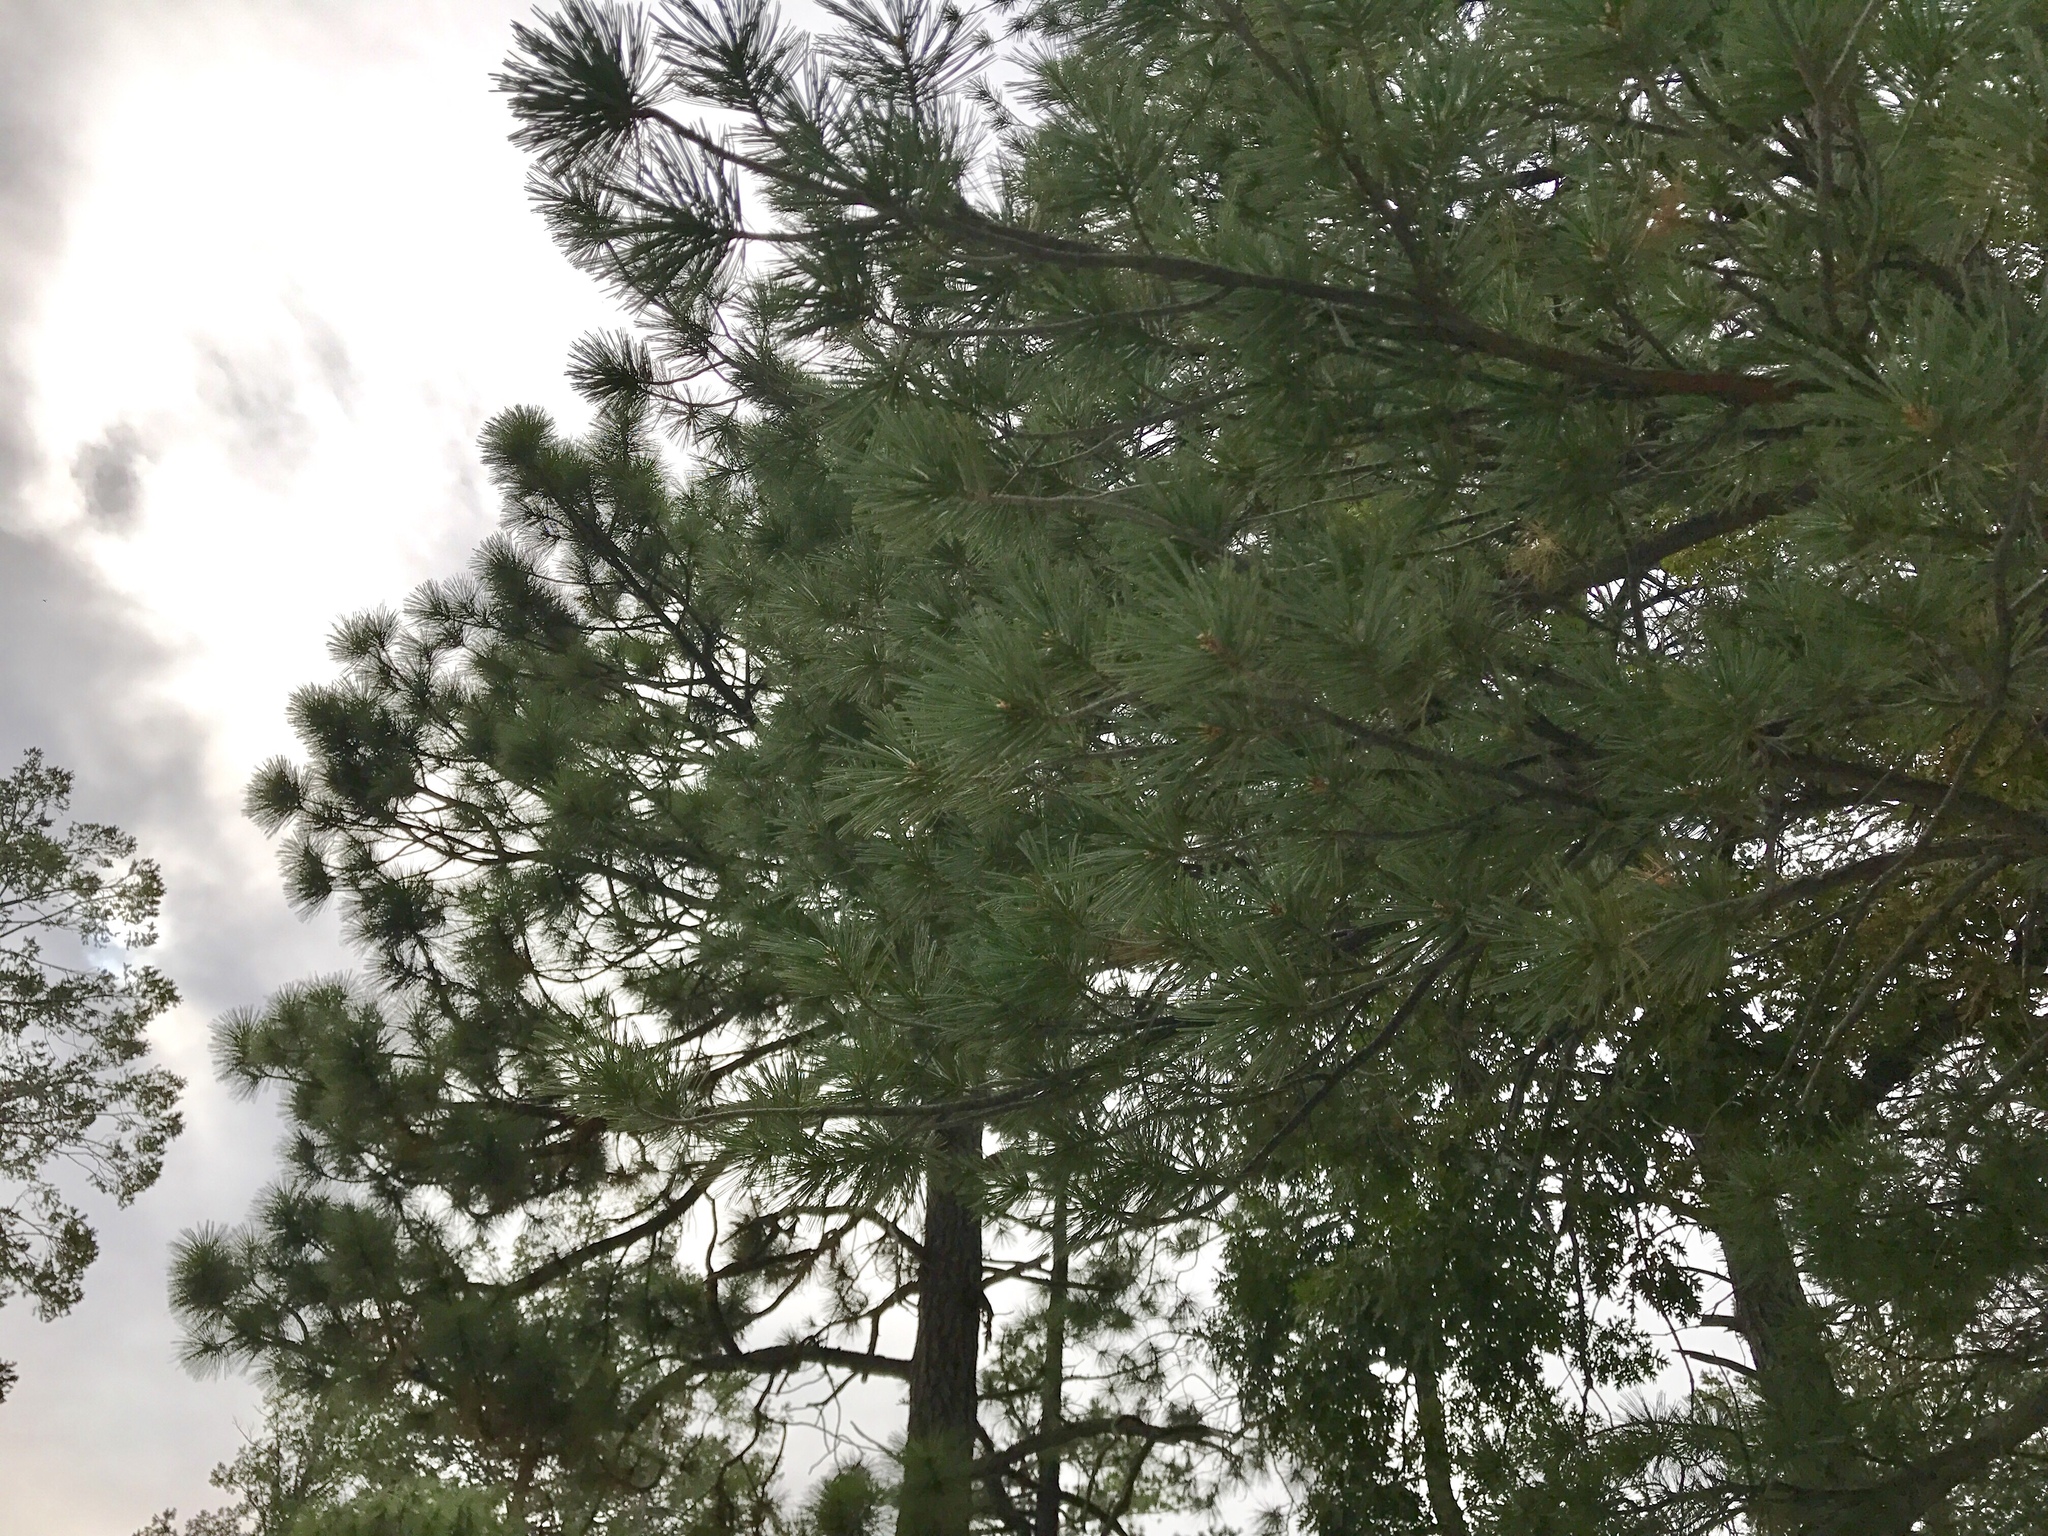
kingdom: Plantae
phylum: Tracheophyta
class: Pinopsida
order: Pinales
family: Pinaceae
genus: Pinus
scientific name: Pinus strobiformis
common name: Southwestern white pine
